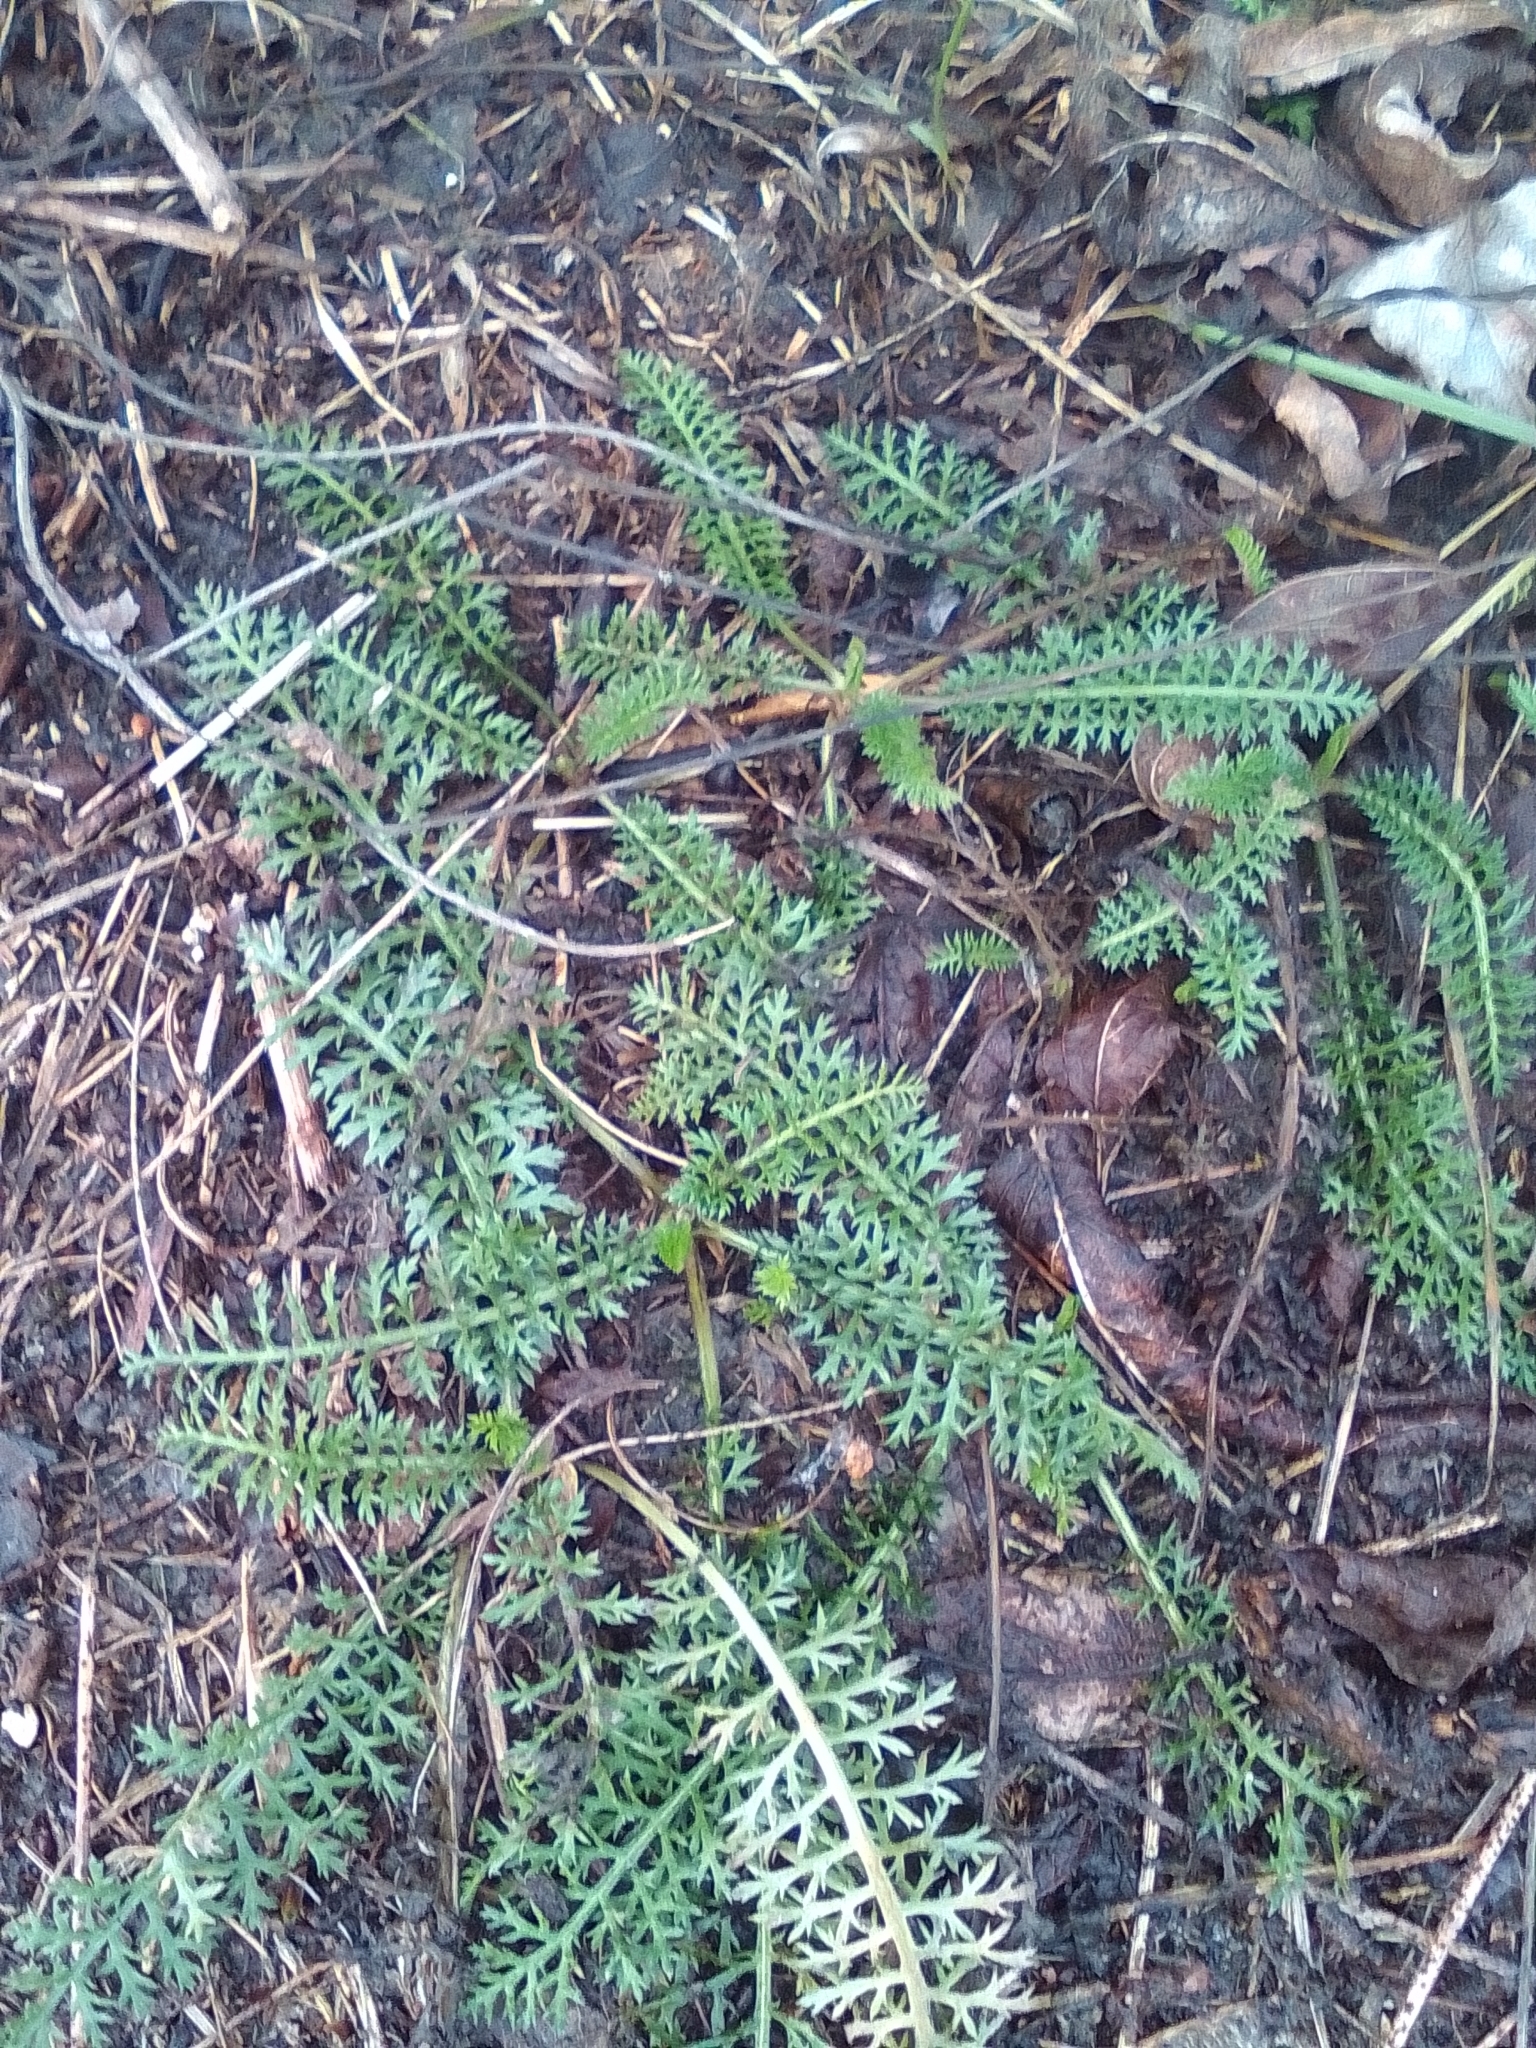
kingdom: Plantae
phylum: Tracheophyta
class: Magnoliopsida
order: Asterales
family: Asteraceae
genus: Achillea
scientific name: Achillea millefolium
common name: Yarrow
